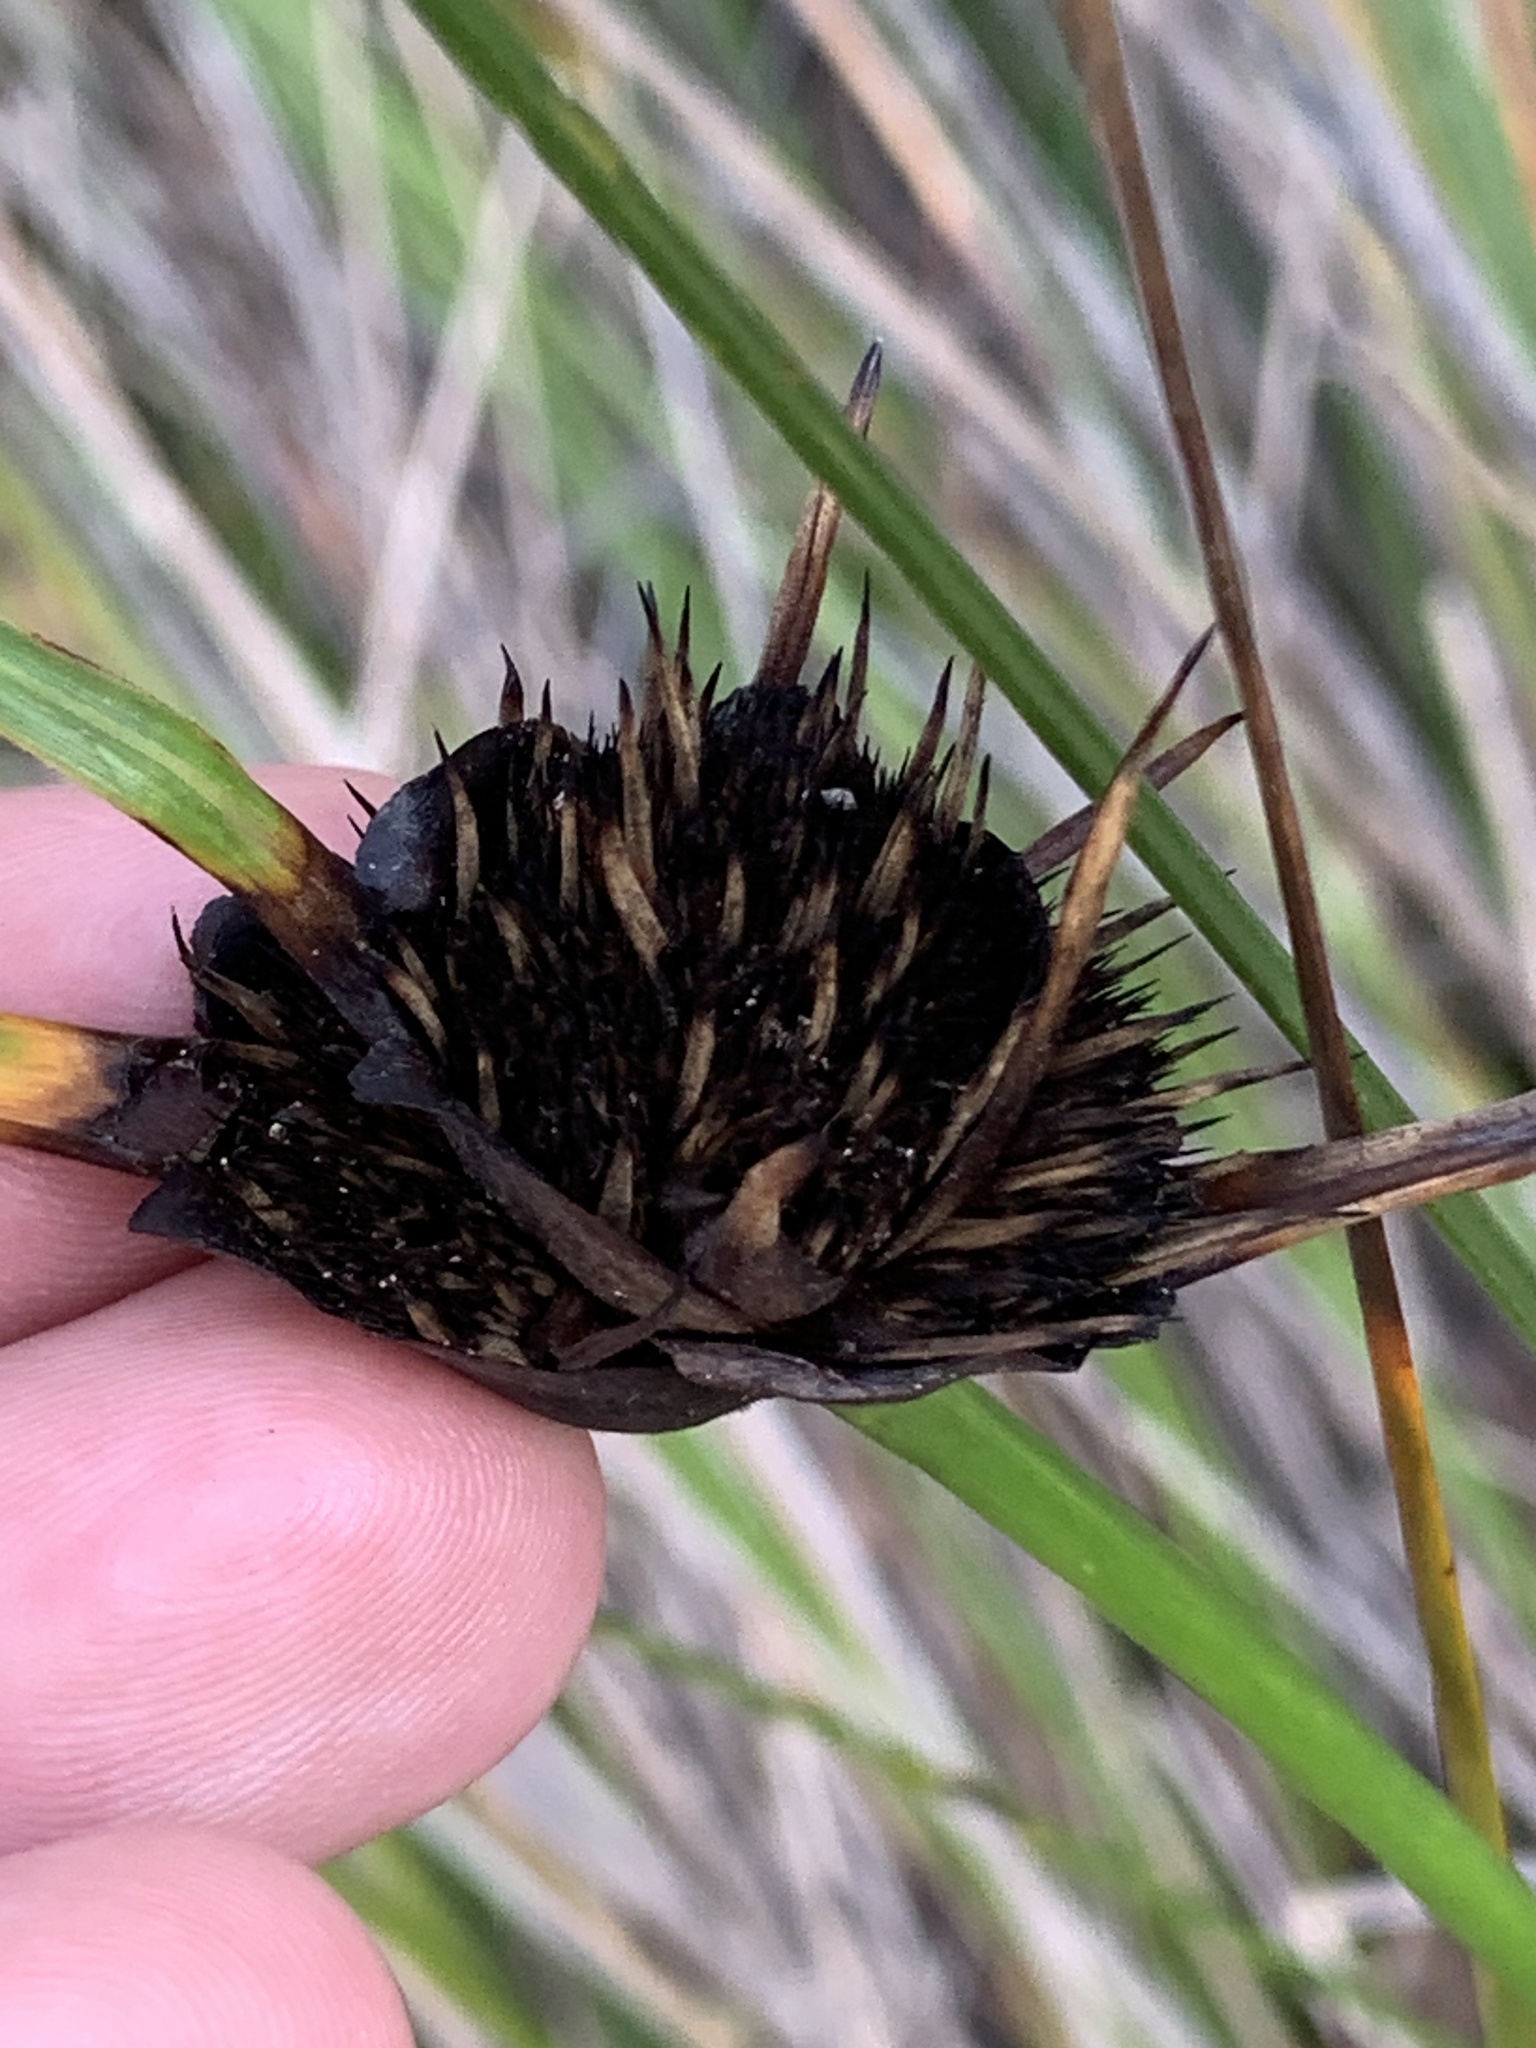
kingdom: Plantae
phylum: Tracheophyta
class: Liliopsida
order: Poales
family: Cyperaceae
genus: Mesomelaena
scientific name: Mesomelaena tetragona
